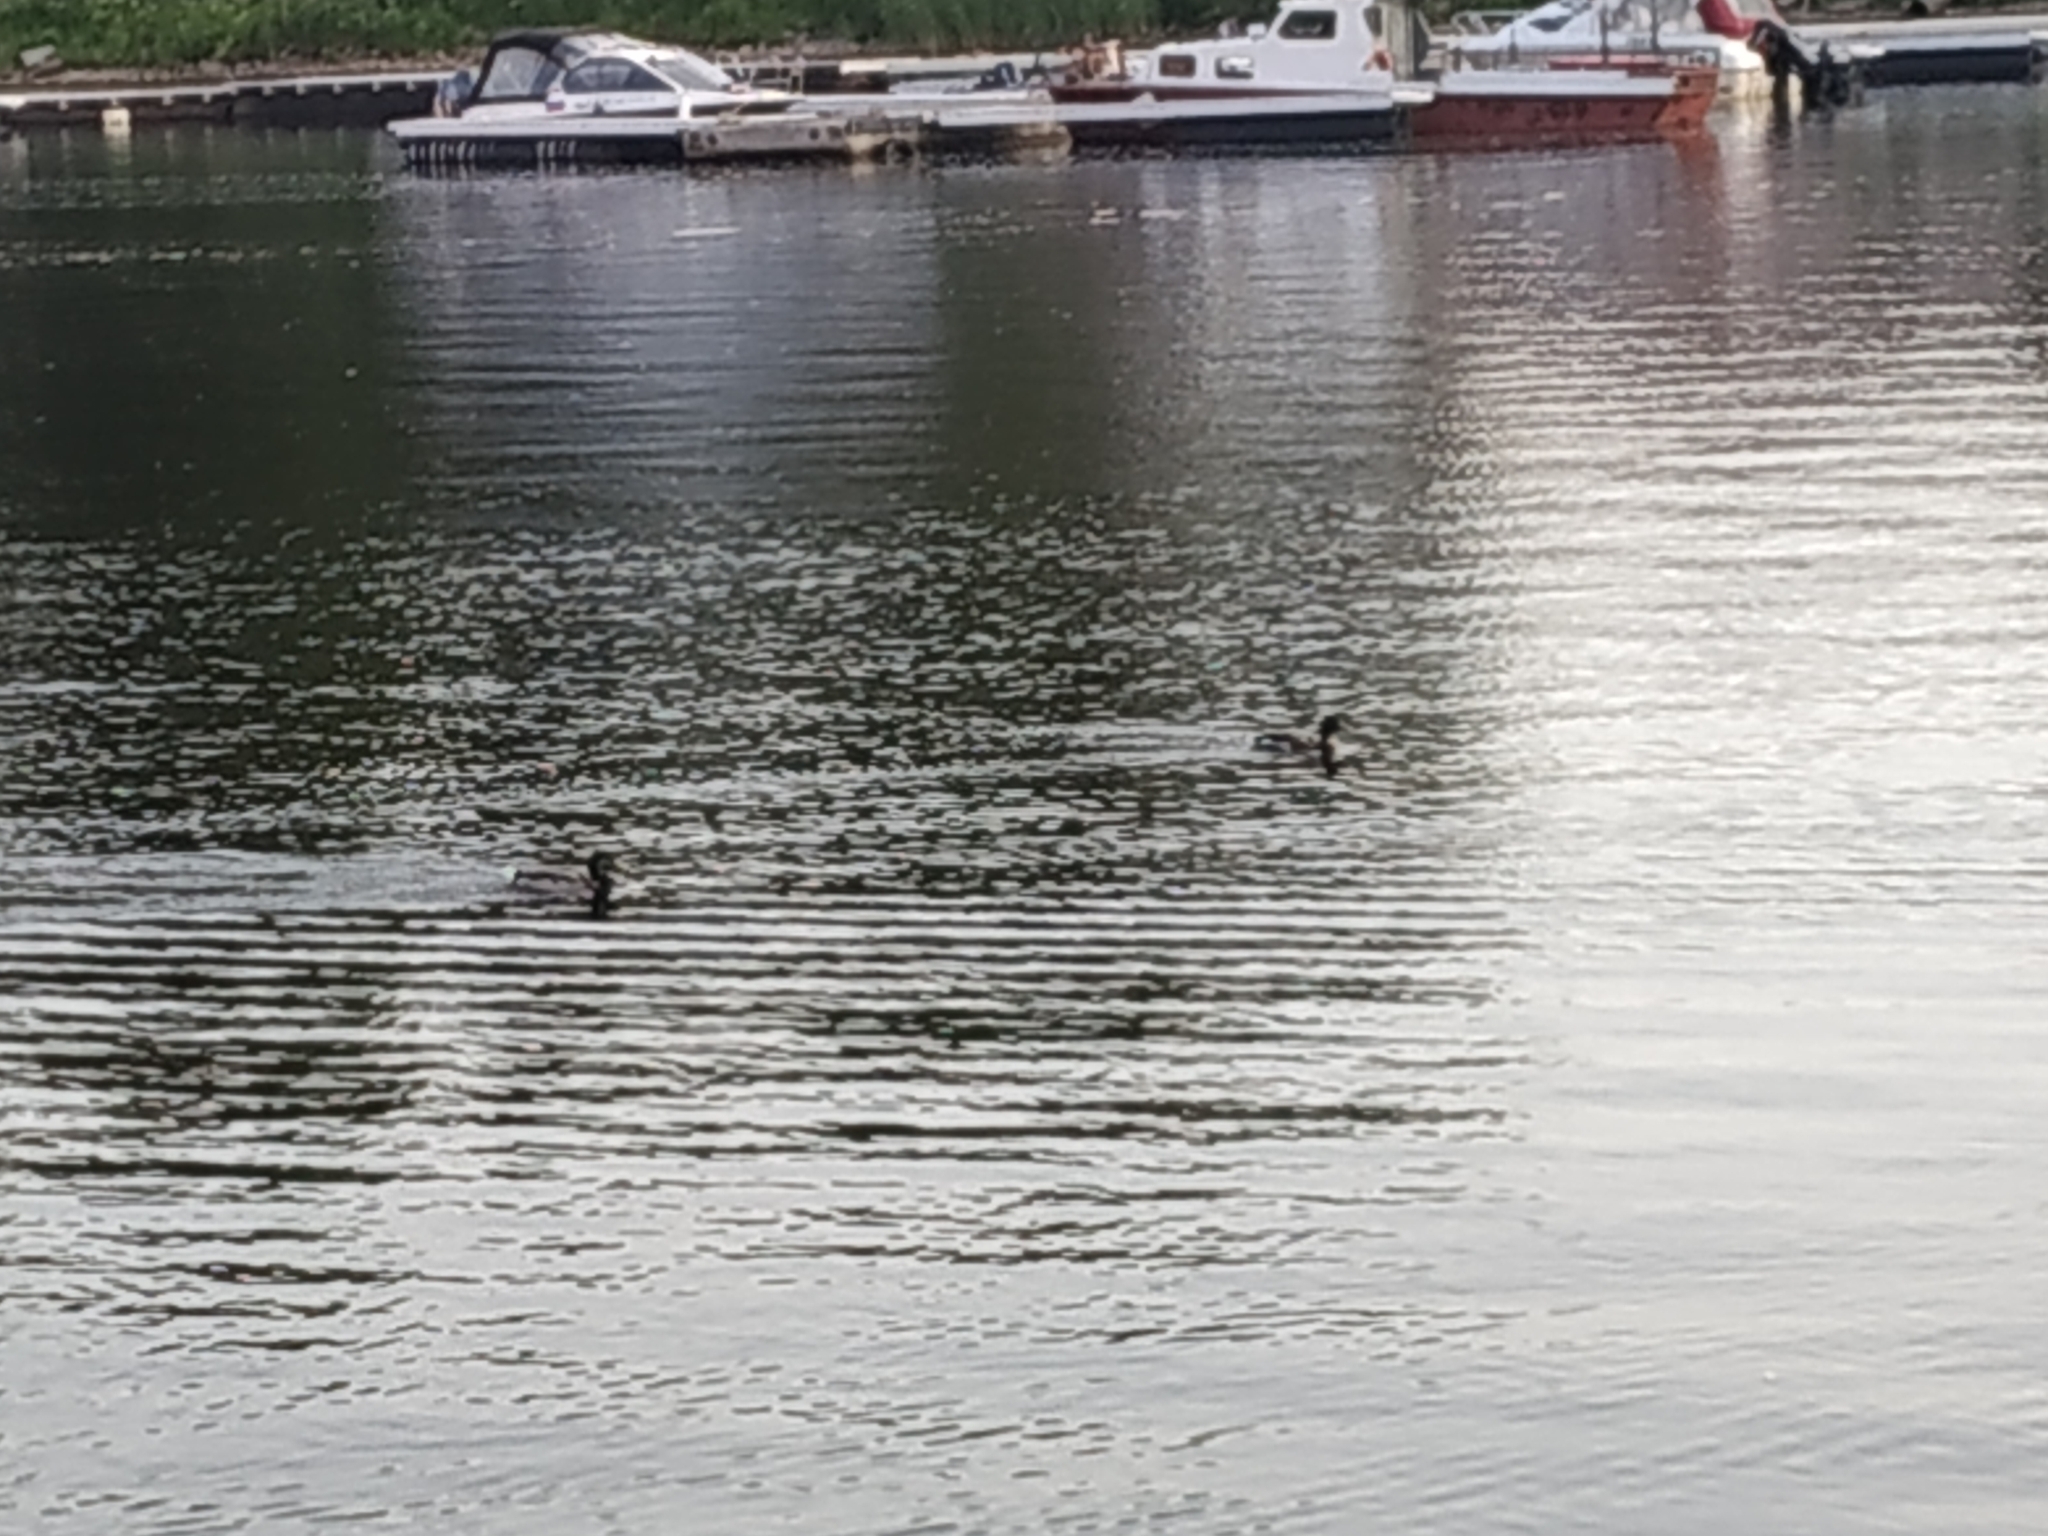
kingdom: Animalia
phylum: Chordata
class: Aves
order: Anseriformes
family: Anatidae
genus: Anas
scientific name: Anas platyrhynchos
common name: Mallard
